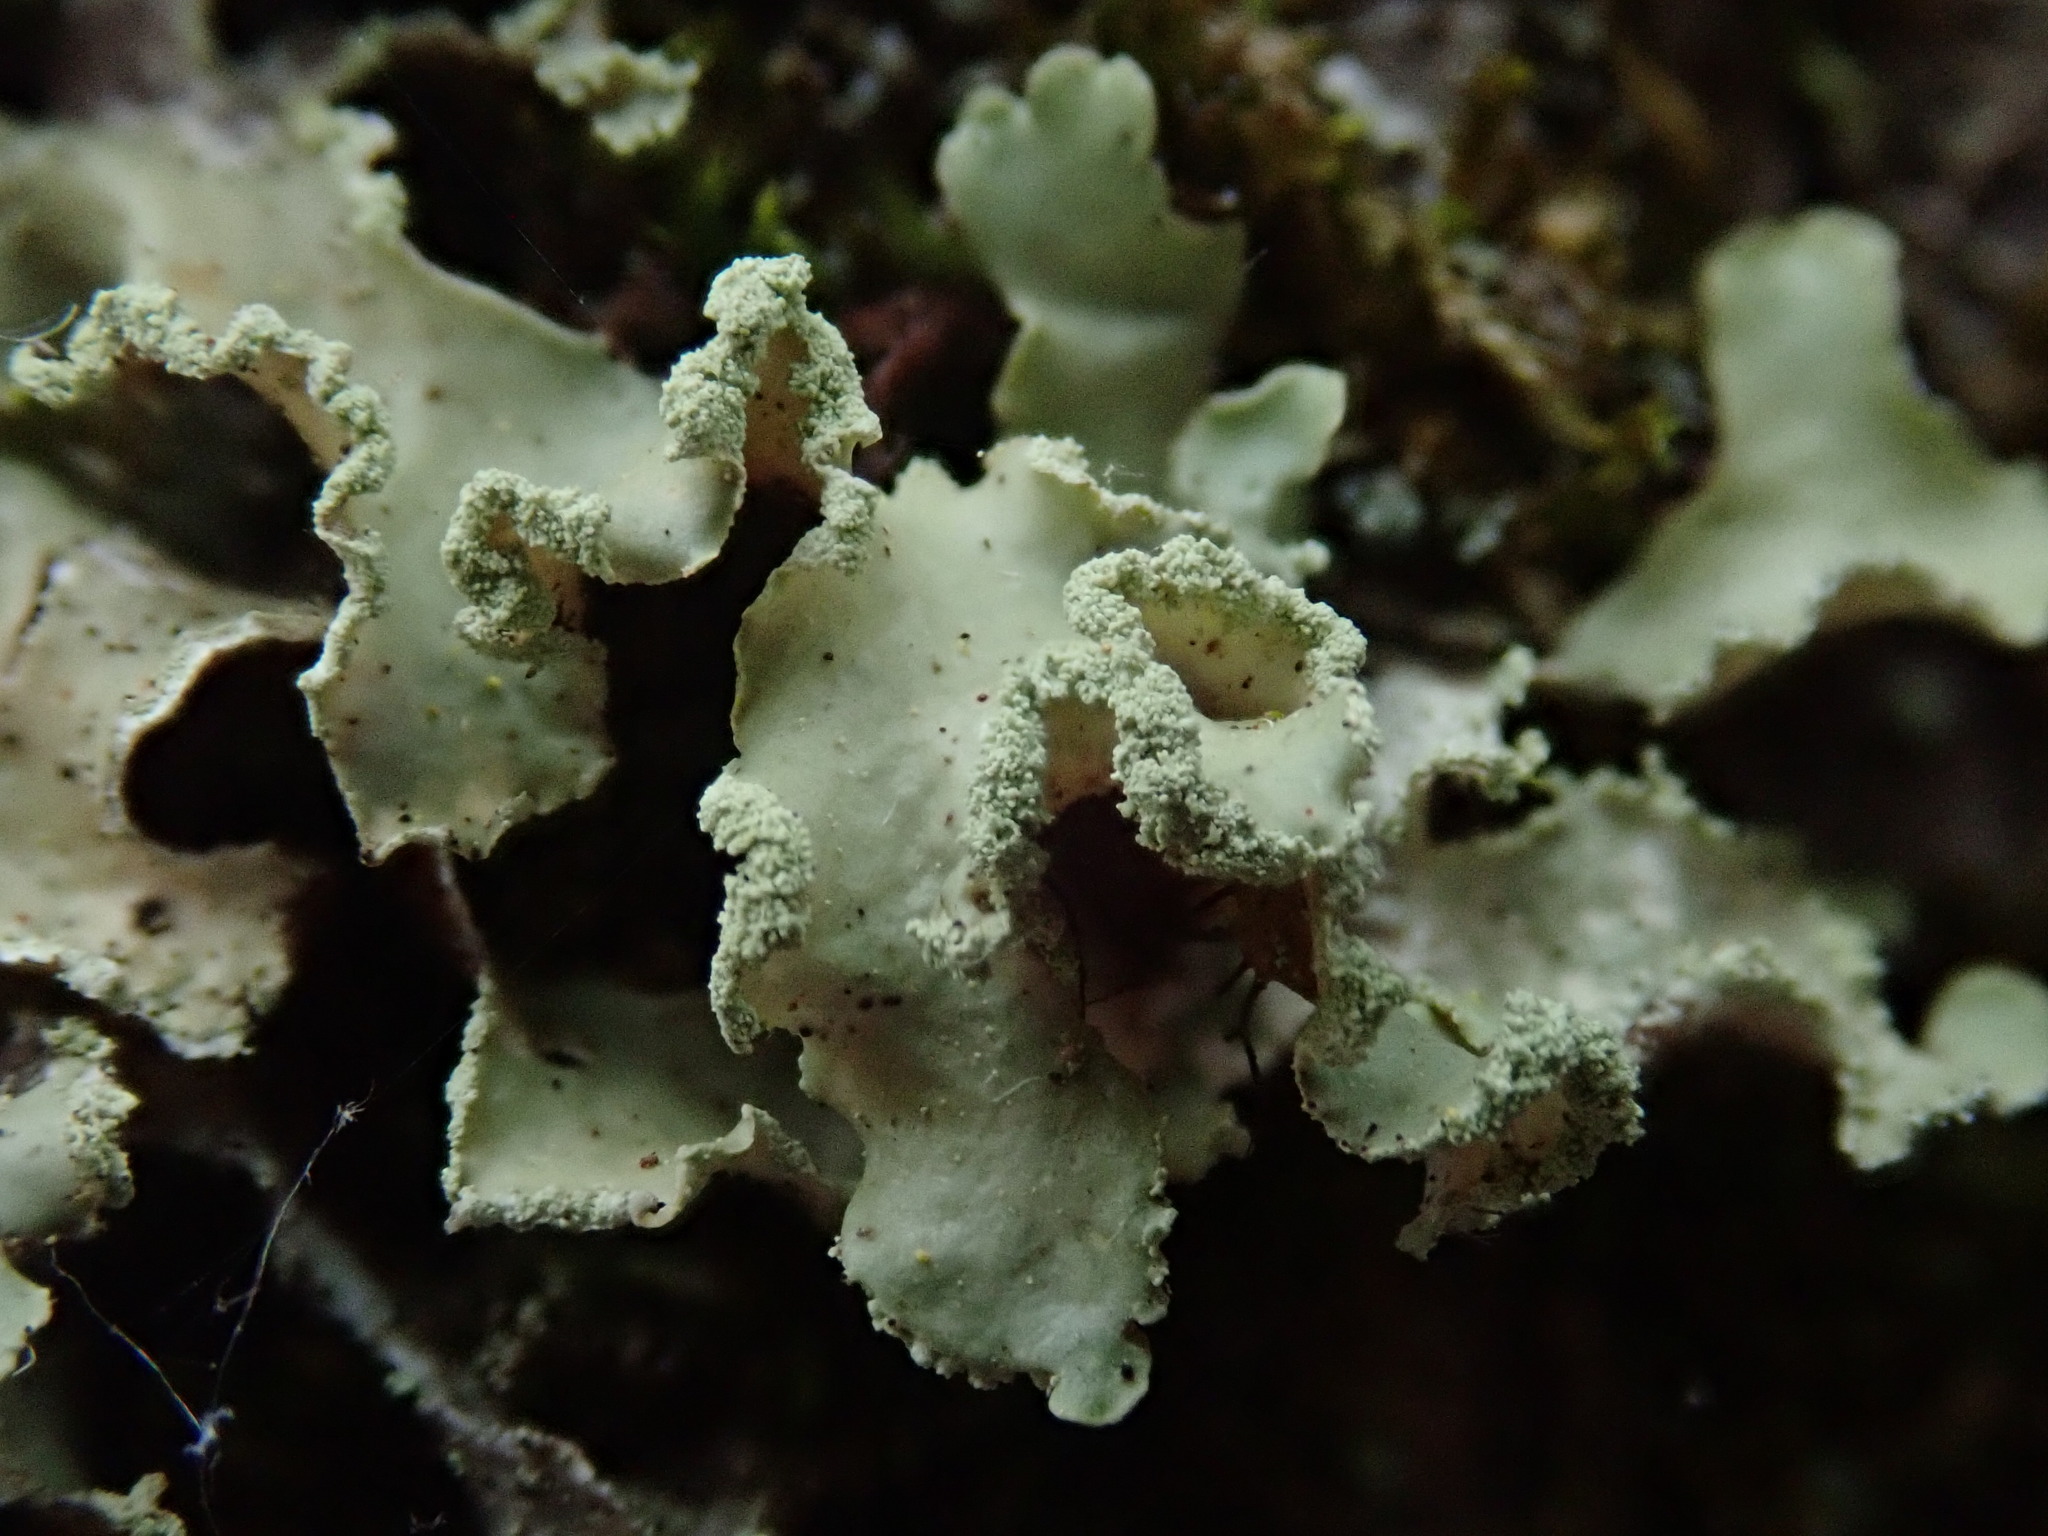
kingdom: Fungi
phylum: Ascomycota
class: Lecanoromycetes
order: Lecanorales
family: Parmeliaceae
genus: Usnocetraria
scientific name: Usnocetraria oakesiana
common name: Yellow ribbon lichen
